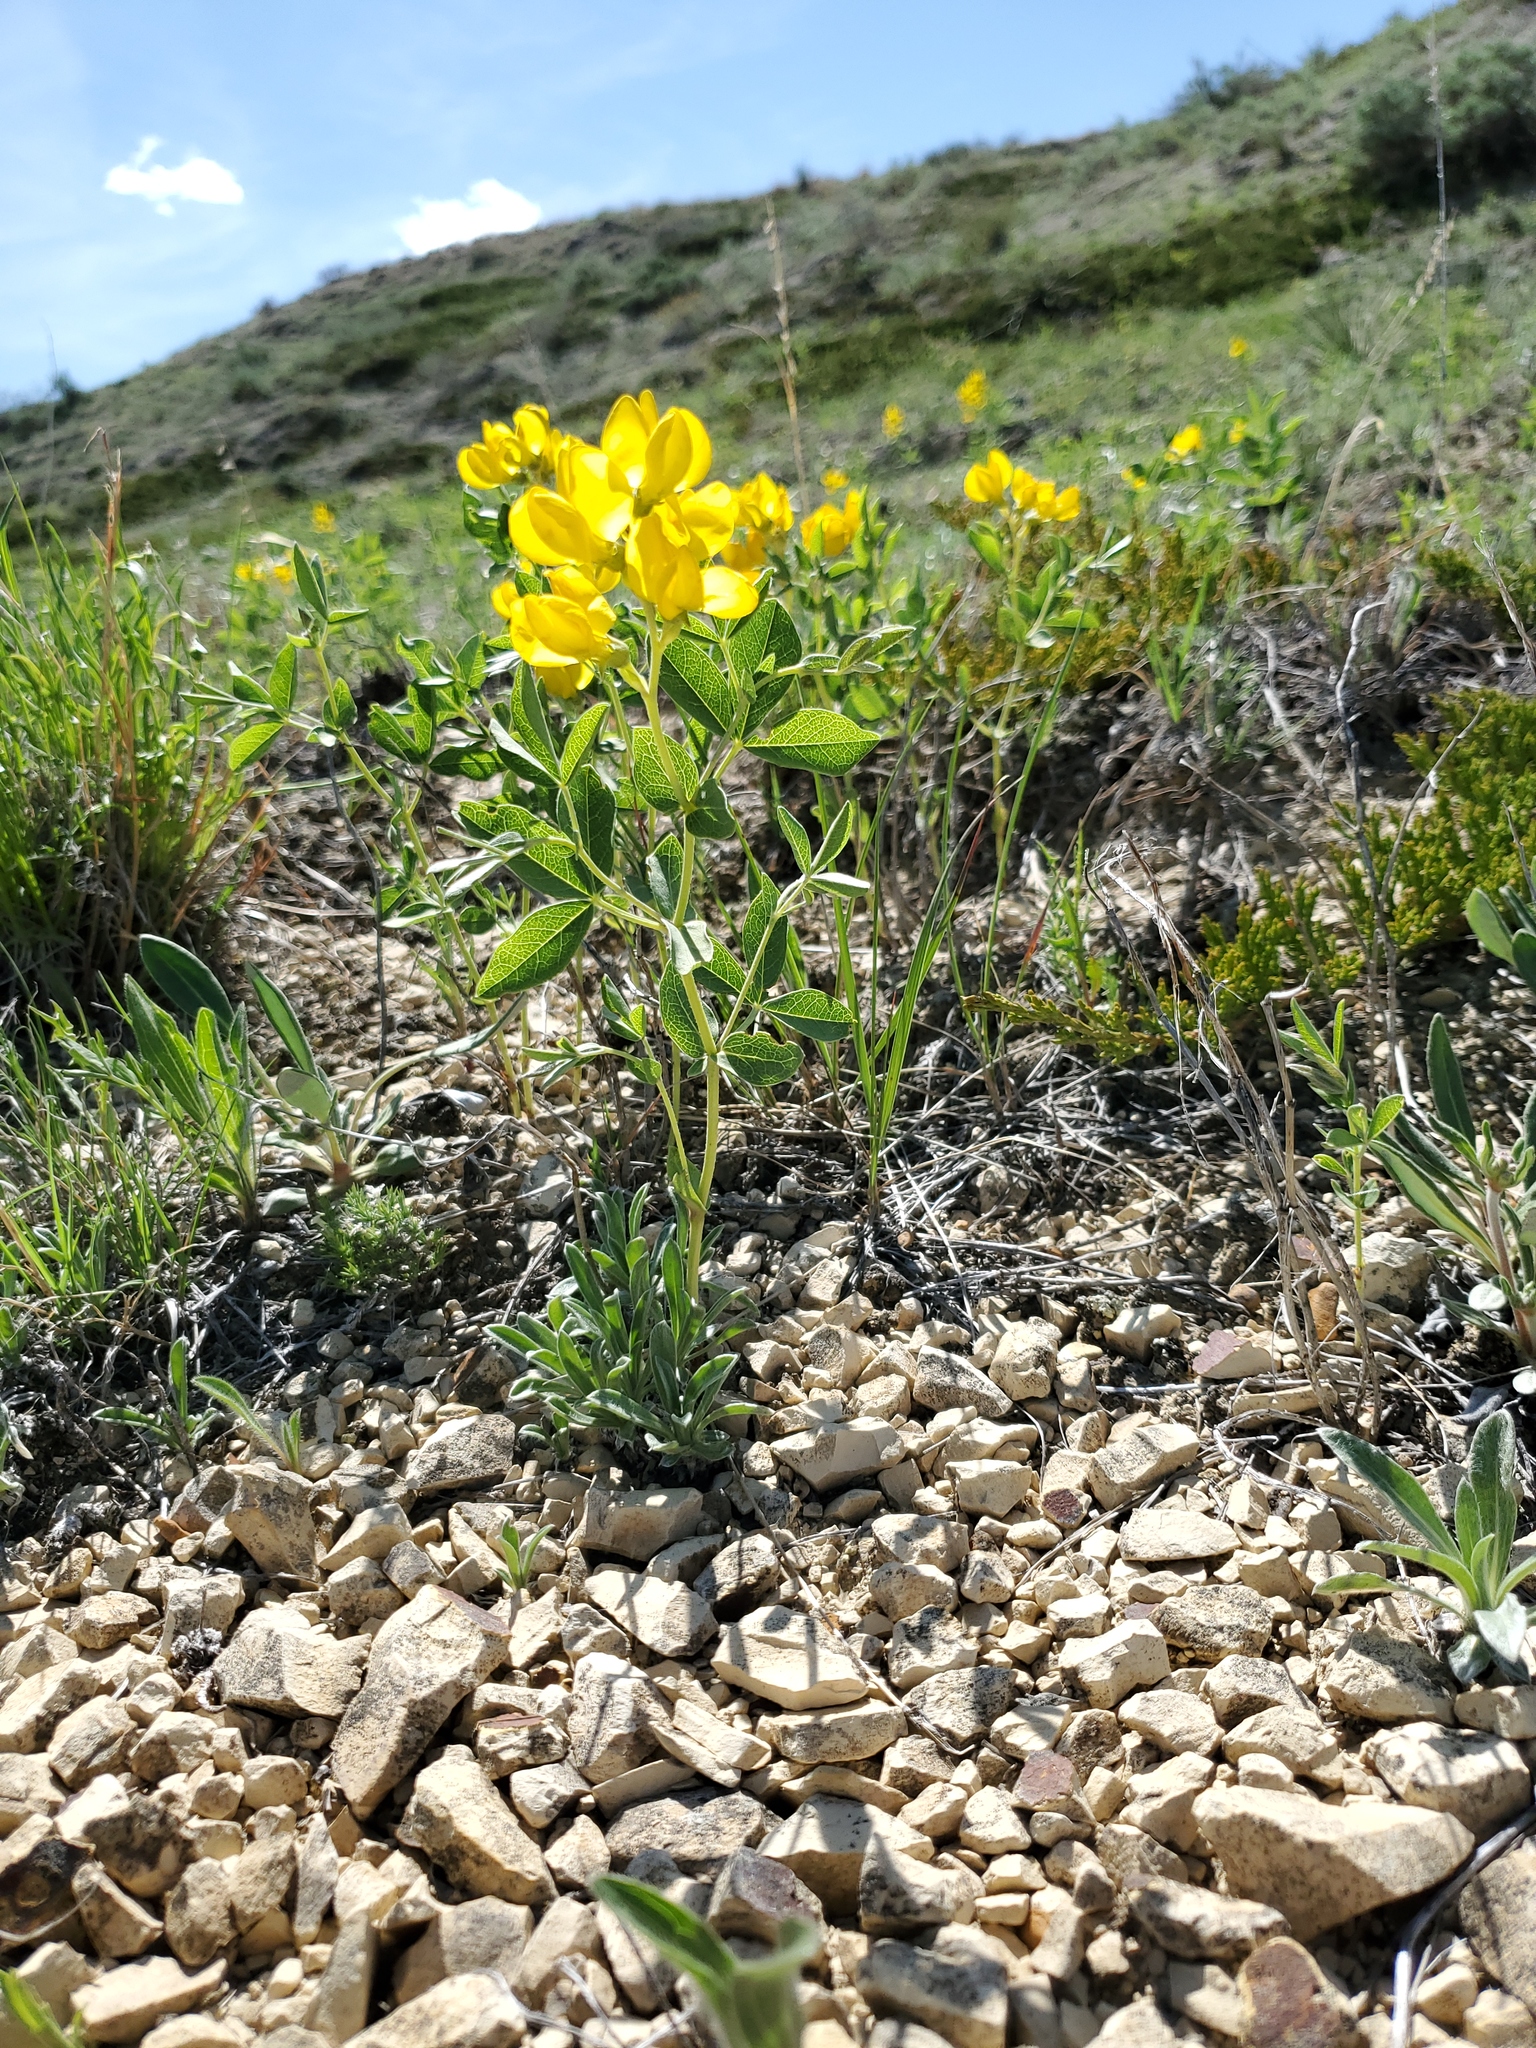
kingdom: Plantae
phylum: Tracheophyta
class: Magnoliopsida
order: Fabales
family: Fabaceae
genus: Thermopsis
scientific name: Thermopsis rhombifolia
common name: Circle-pod-pea
